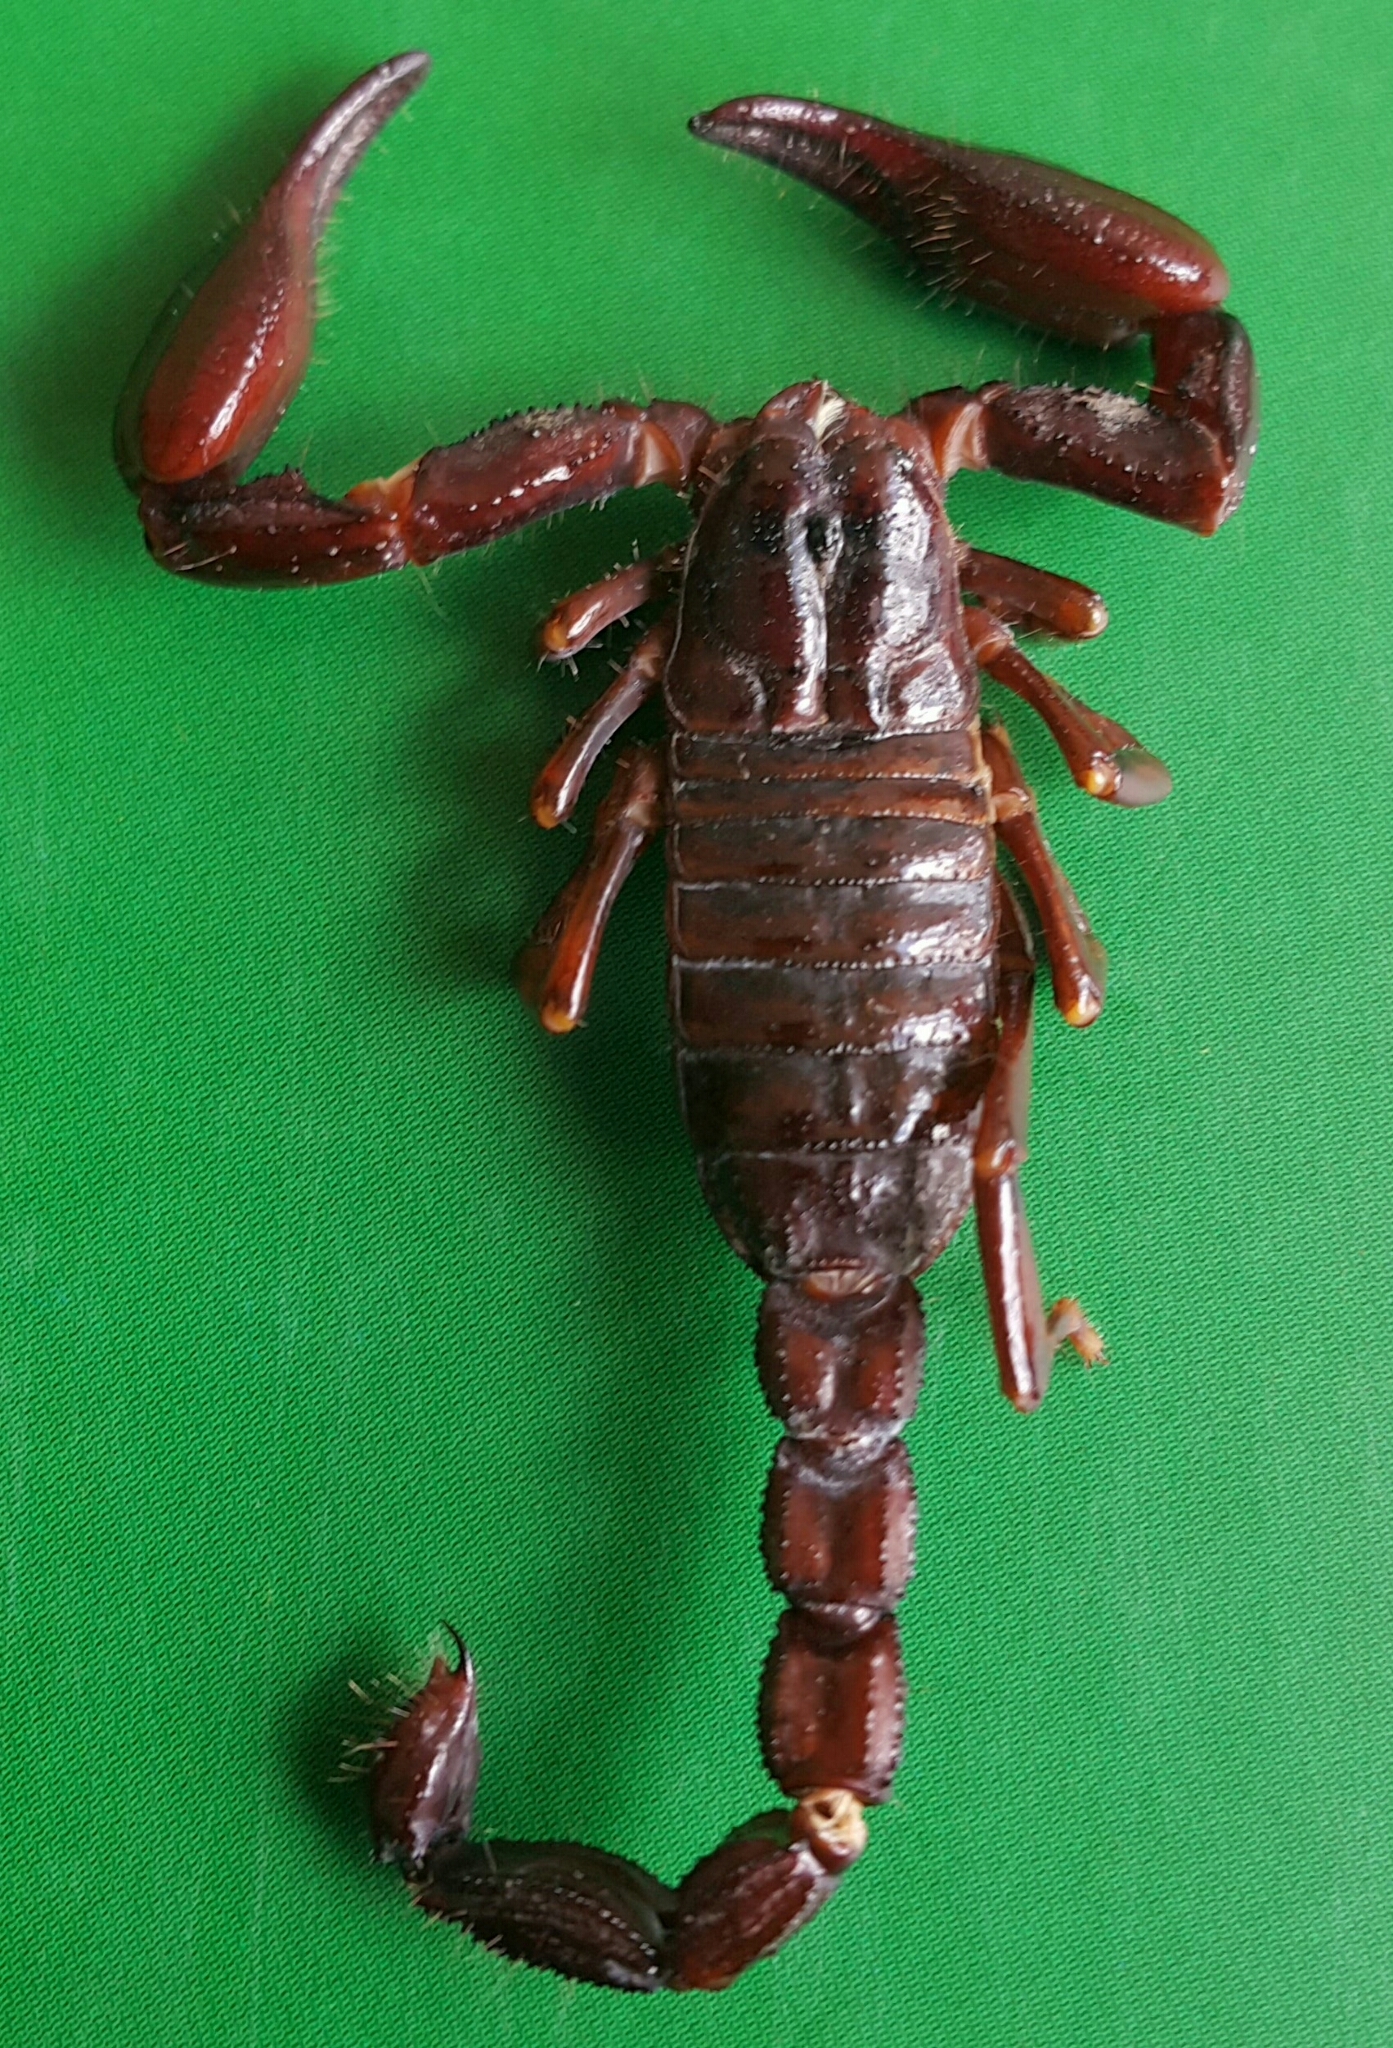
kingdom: Animalia
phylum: Arthropoda
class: Arachnida
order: Scorpiones
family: Diplocentridae
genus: Diplocentrus
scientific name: Diplocentrus lachua
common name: Scorpions
